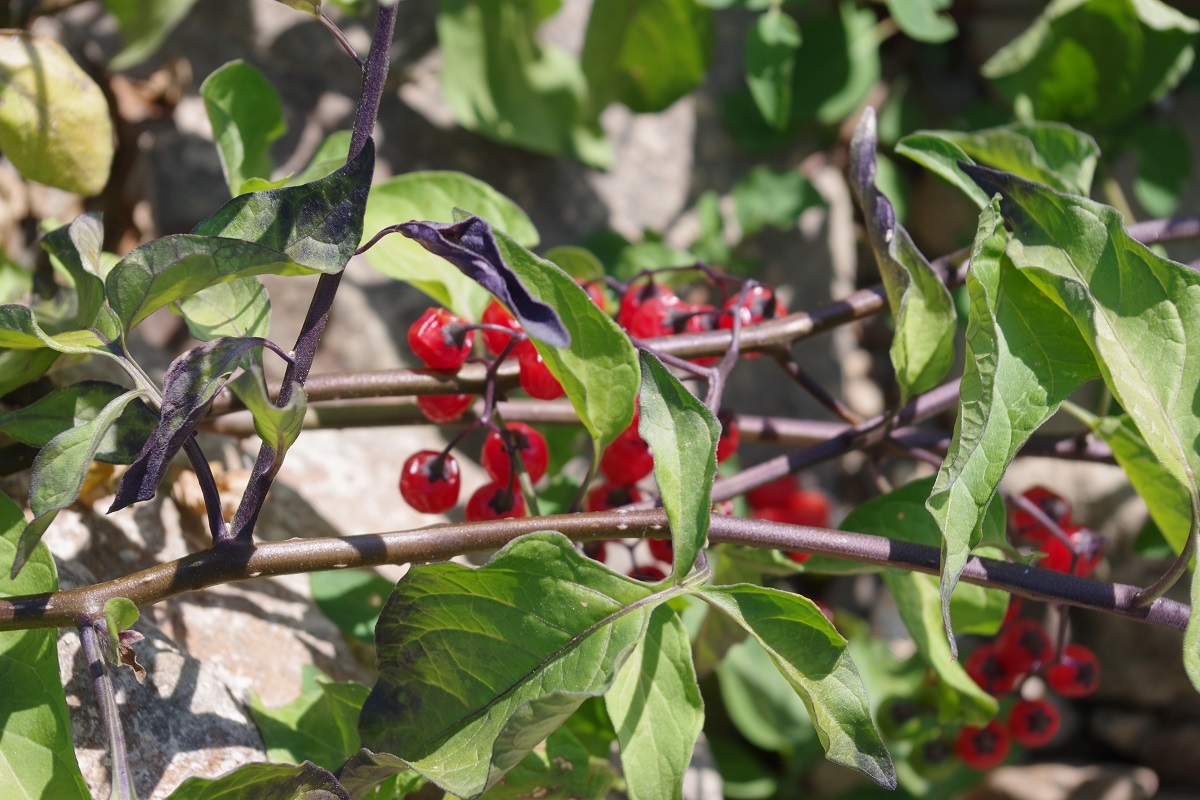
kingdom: Plantae
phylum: Tracheophyta
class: Magnoliopsida
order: Solanales
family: Solanaceae
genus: Solanum
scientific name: Solanum dulcamara
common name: Climbing nightshade
